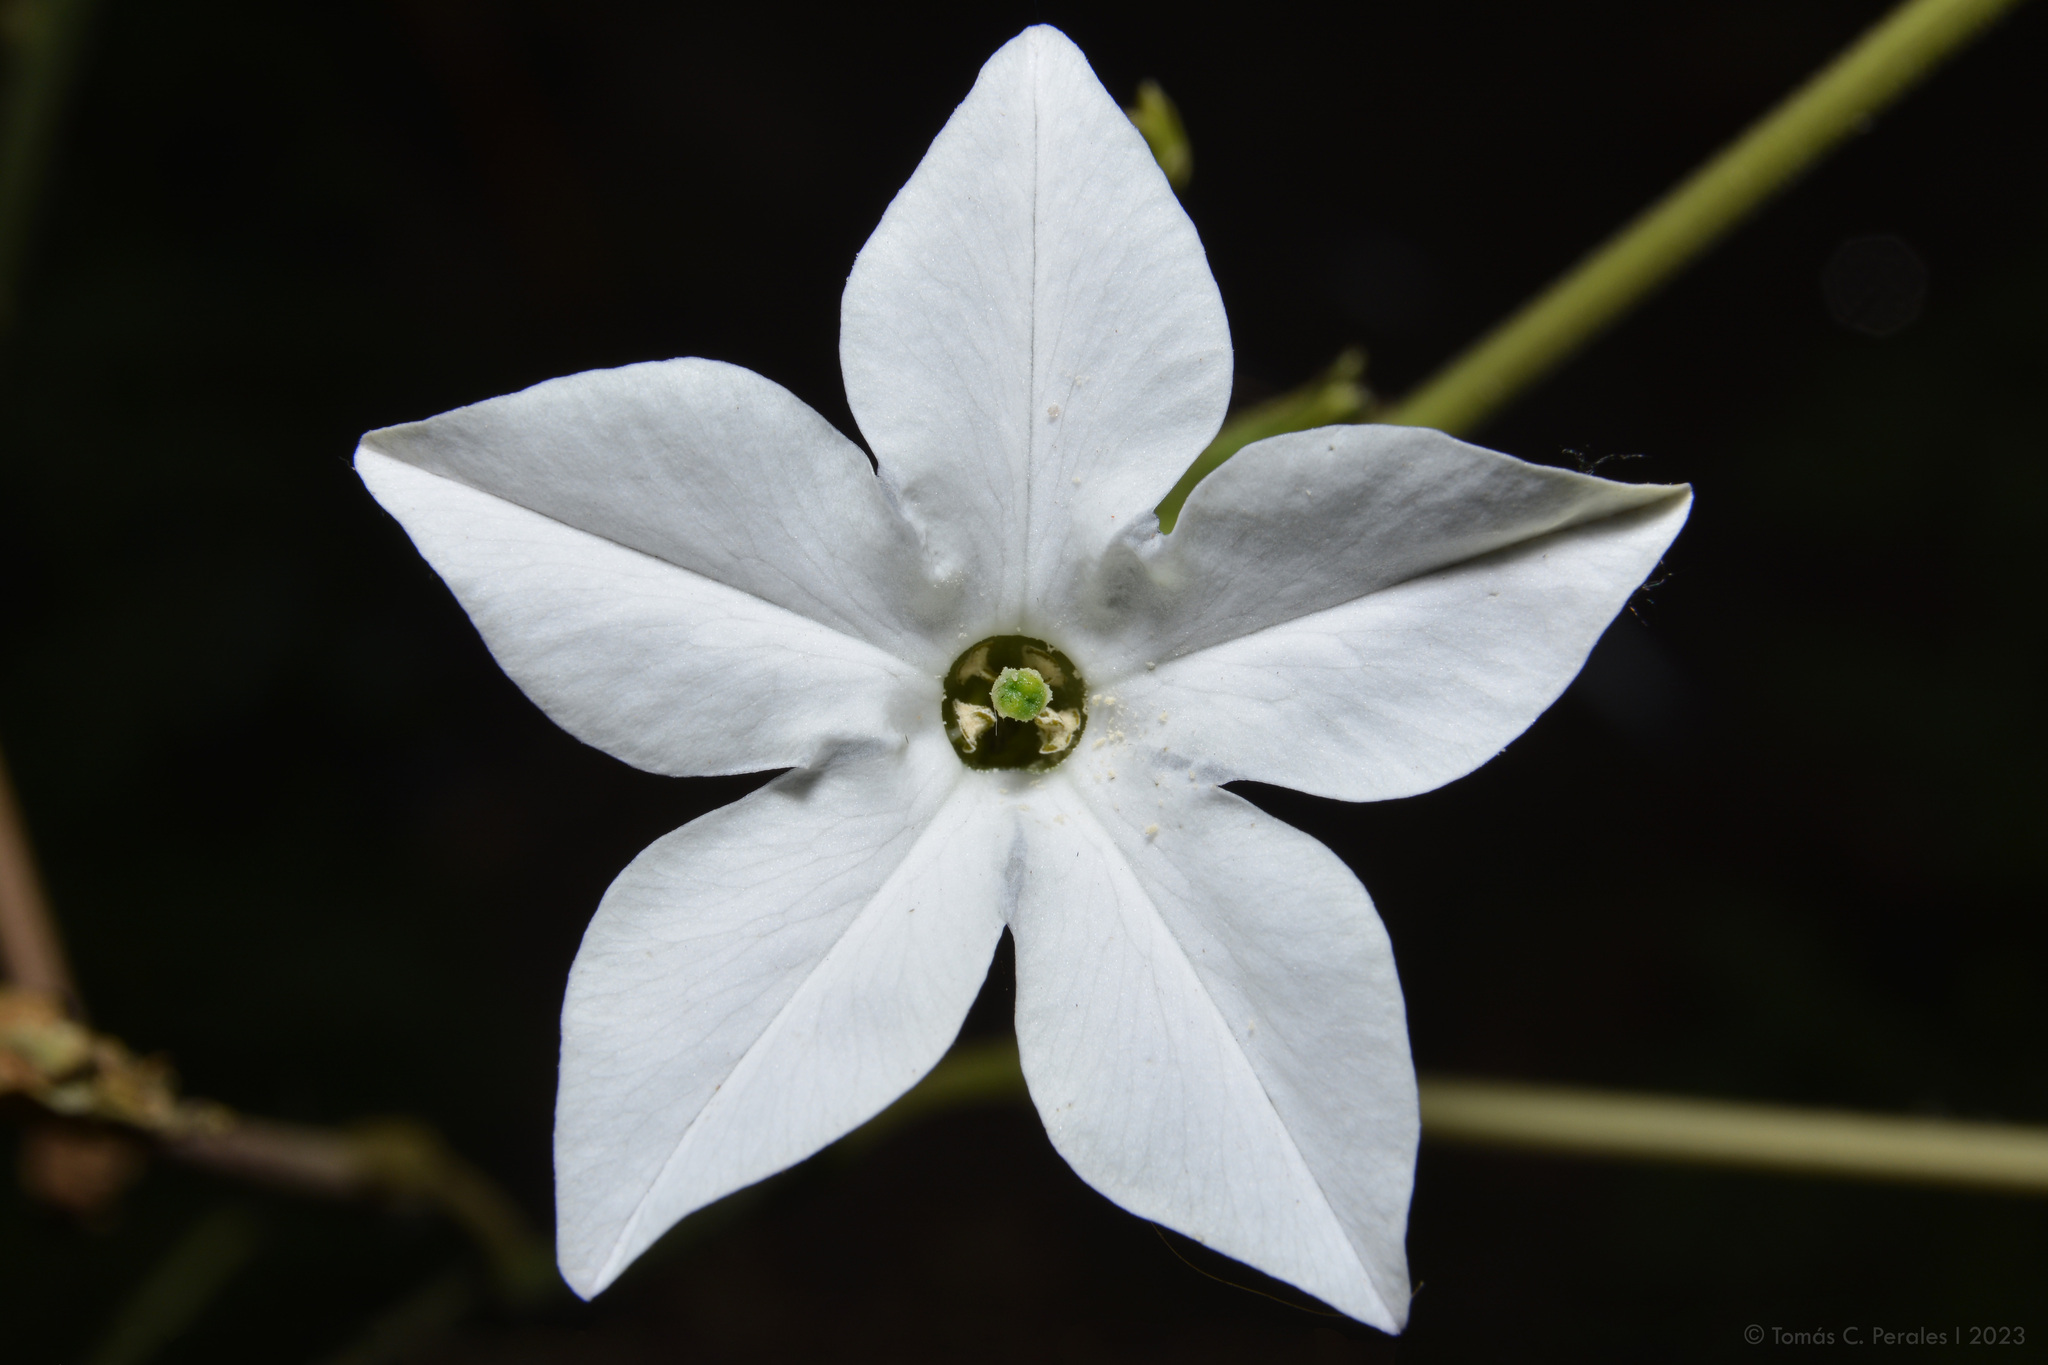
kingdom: Plantae
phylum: Tracheophyta
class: Magnoliopsida
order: Solanales
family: Solanaceae
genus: Nicotiana
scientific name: Nicotiana longiflora
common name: Long-flowered tobacco
